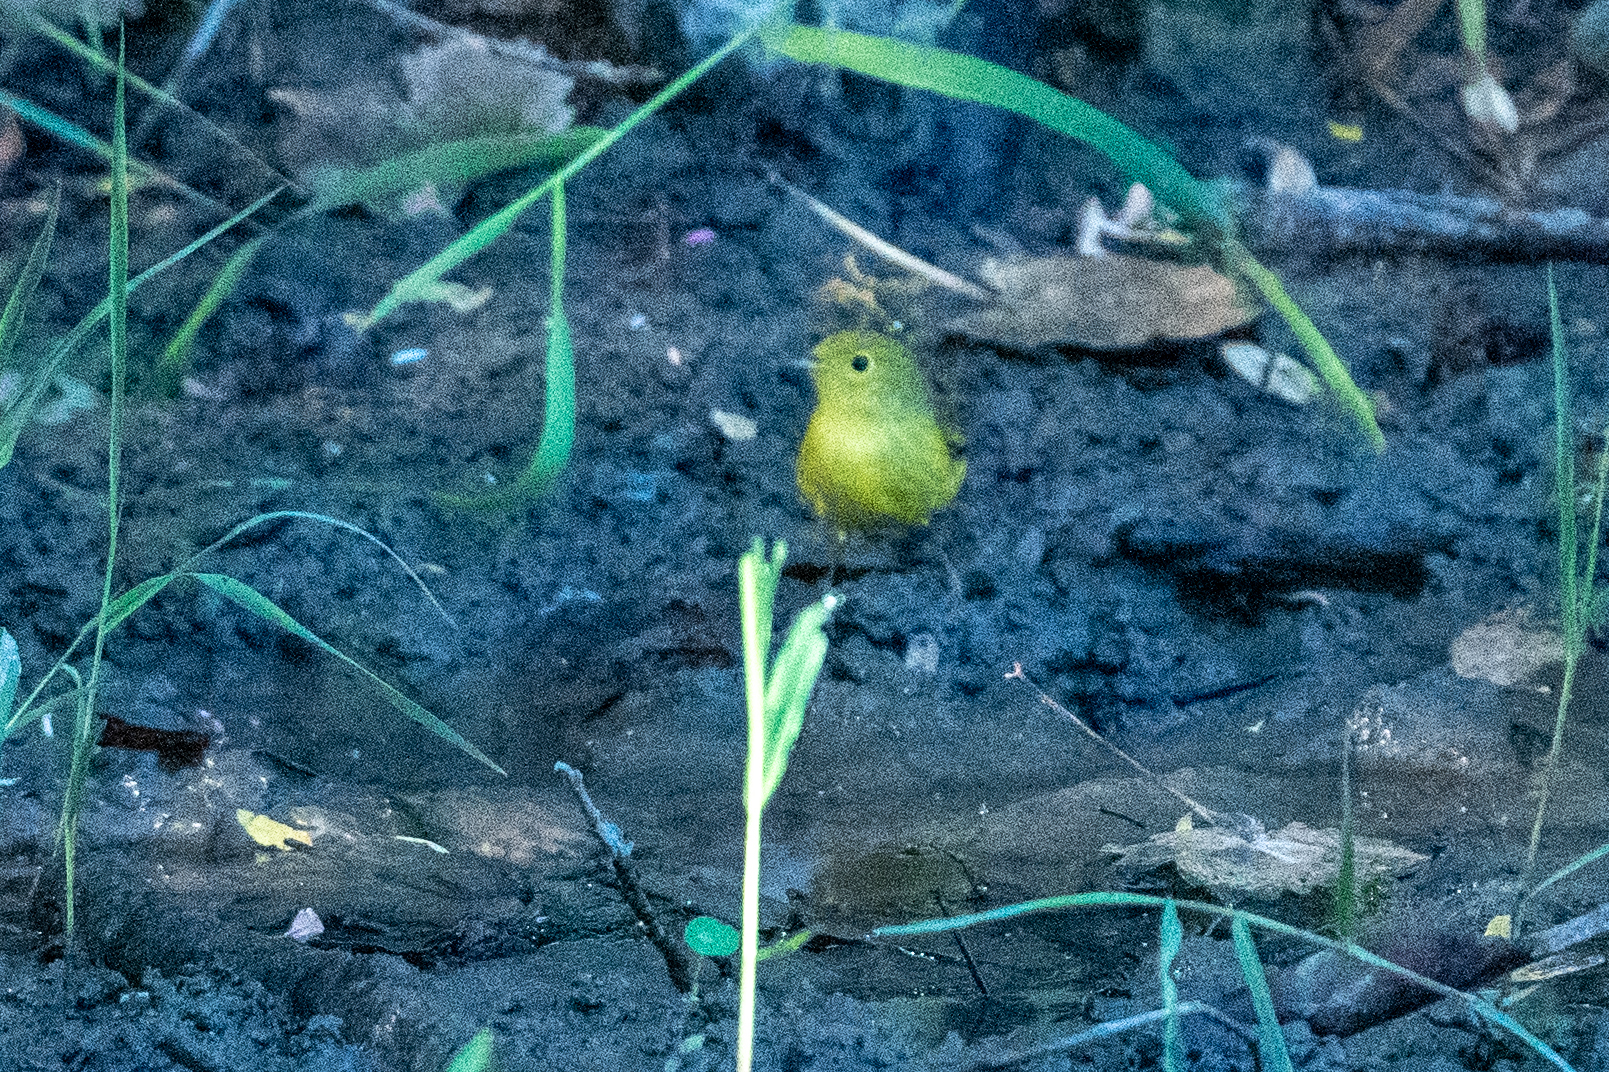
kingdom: Animalia
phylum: Chordata
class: Aves
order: Passeriformes
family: Parulidae
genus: Setophaga
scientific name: Setophaga petechia
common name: Yellow warbler
